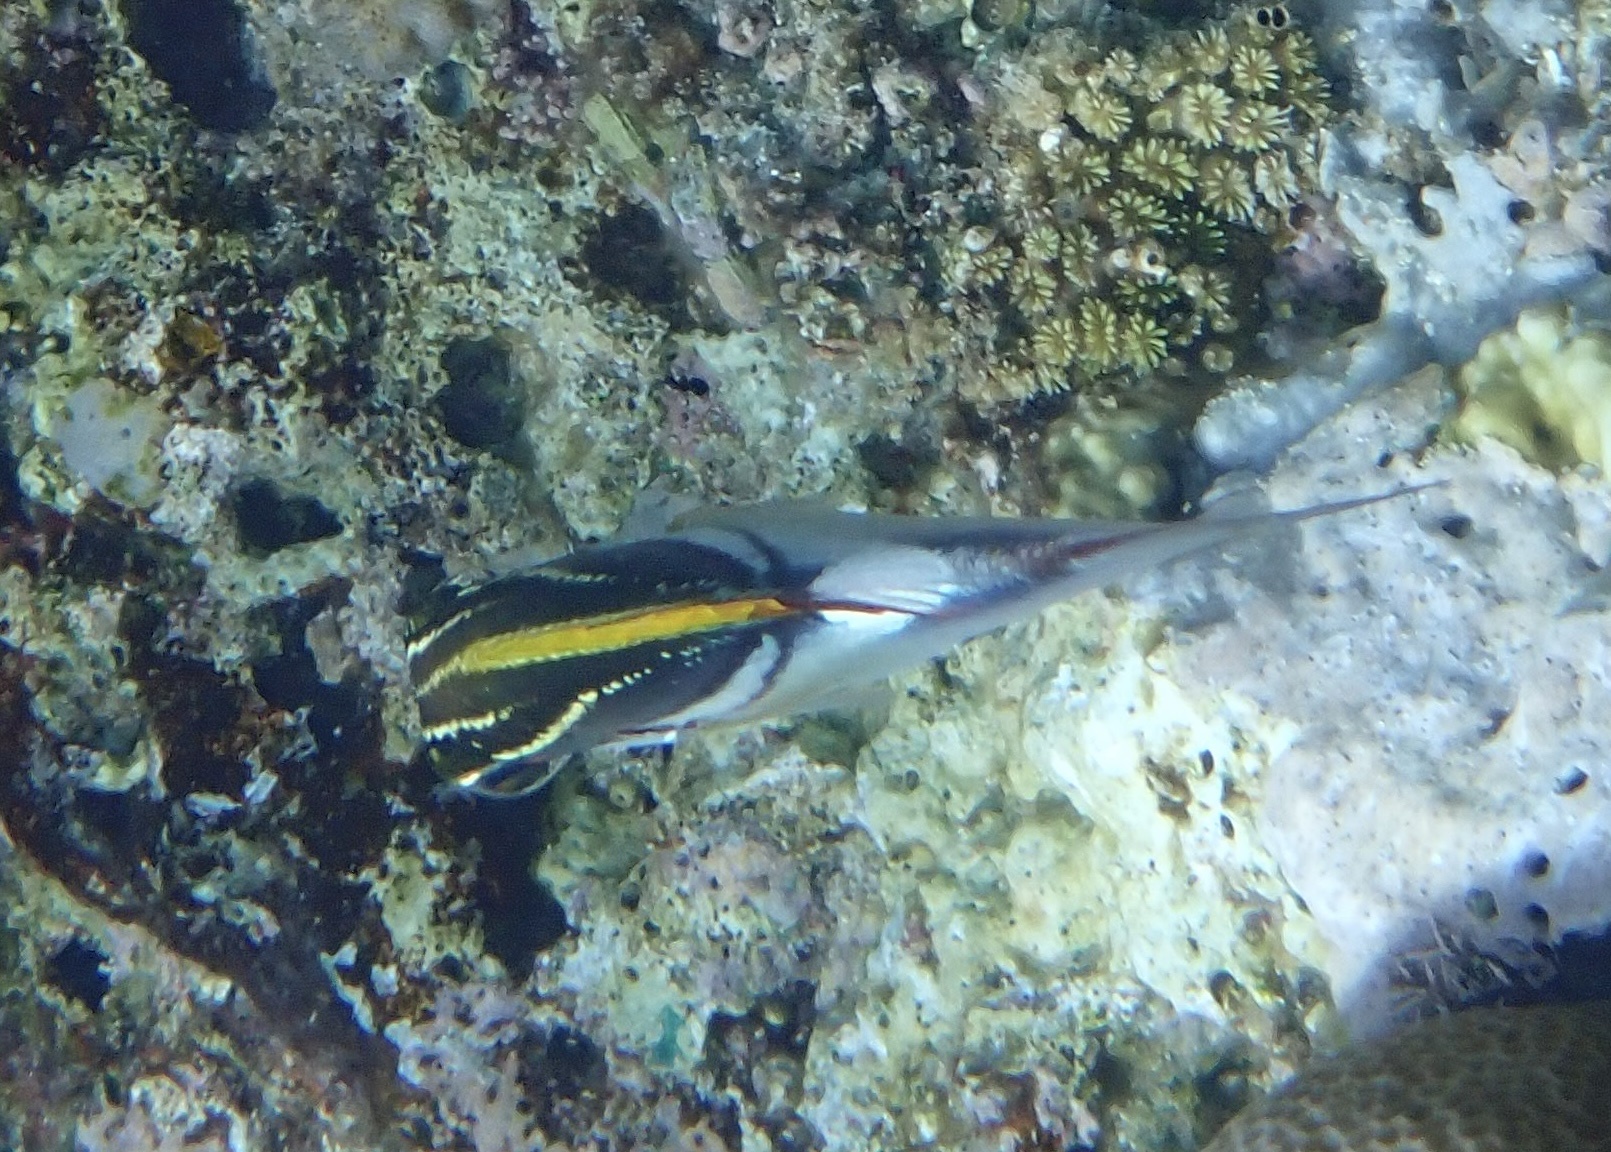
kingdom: Animalia
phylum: Chordata
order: Perciformes
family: Nemipteridae
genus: Scolopsis
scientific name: Scolopsis bilineata
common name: Two-lined monocle bream
